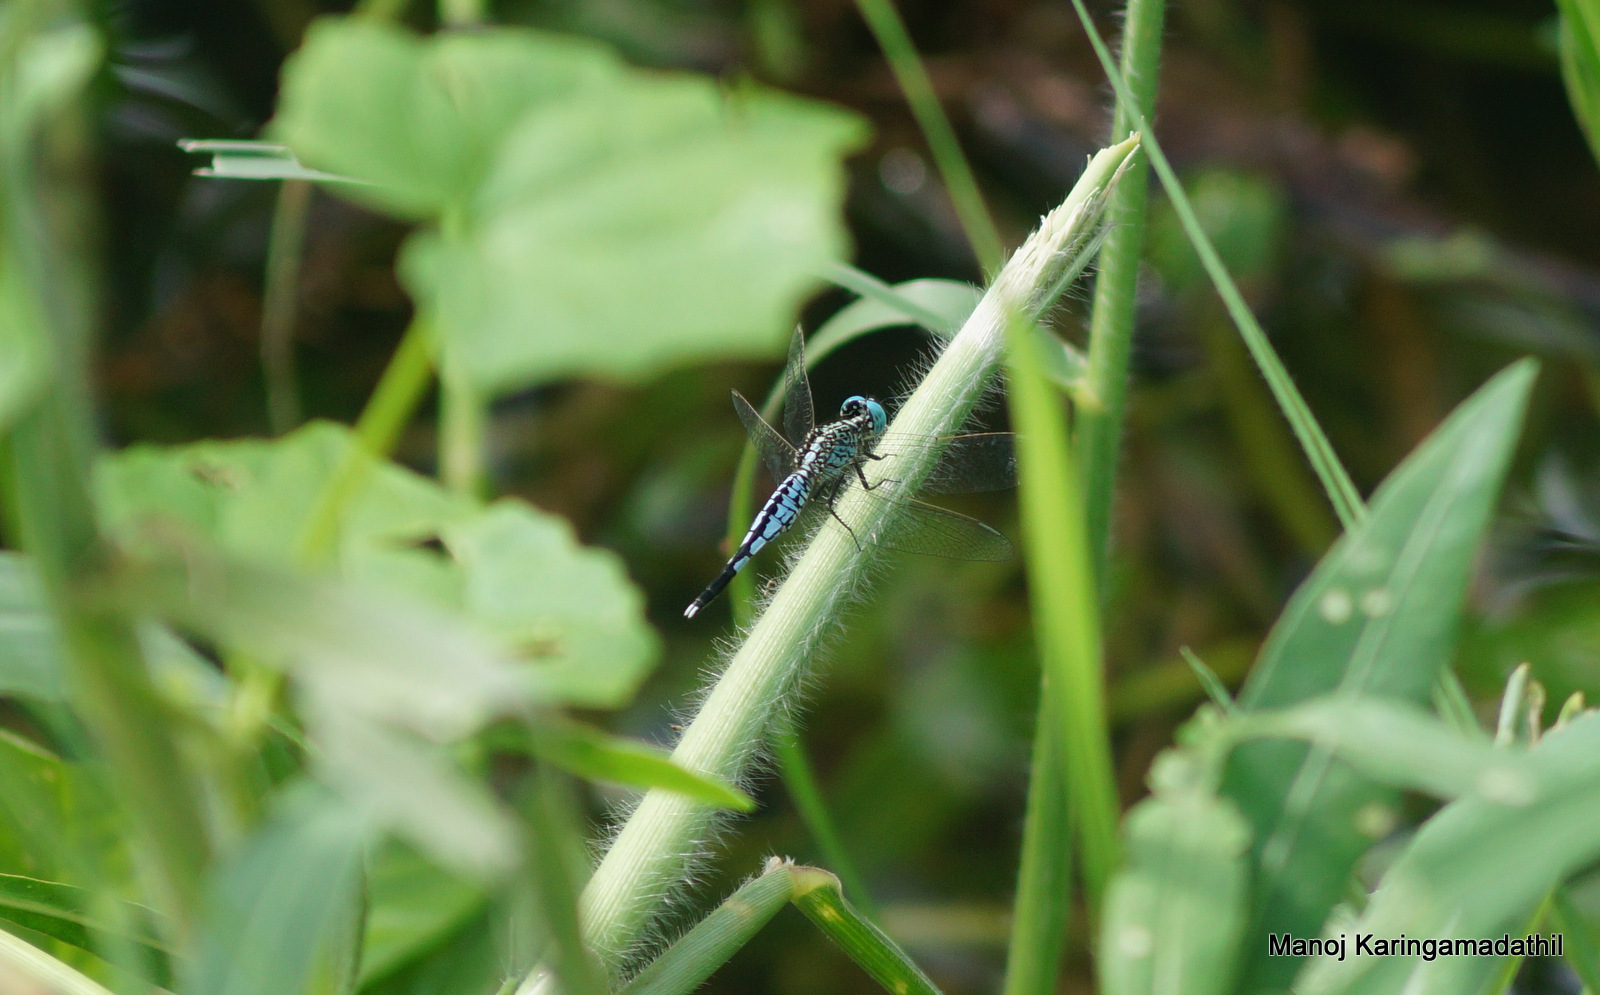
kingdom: Animalia
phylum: Arthropoda
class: Insecta
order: Odonata
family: Libellulidae
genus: Acisoma
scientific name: Acisoma panorpoides
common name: Asian pintail
